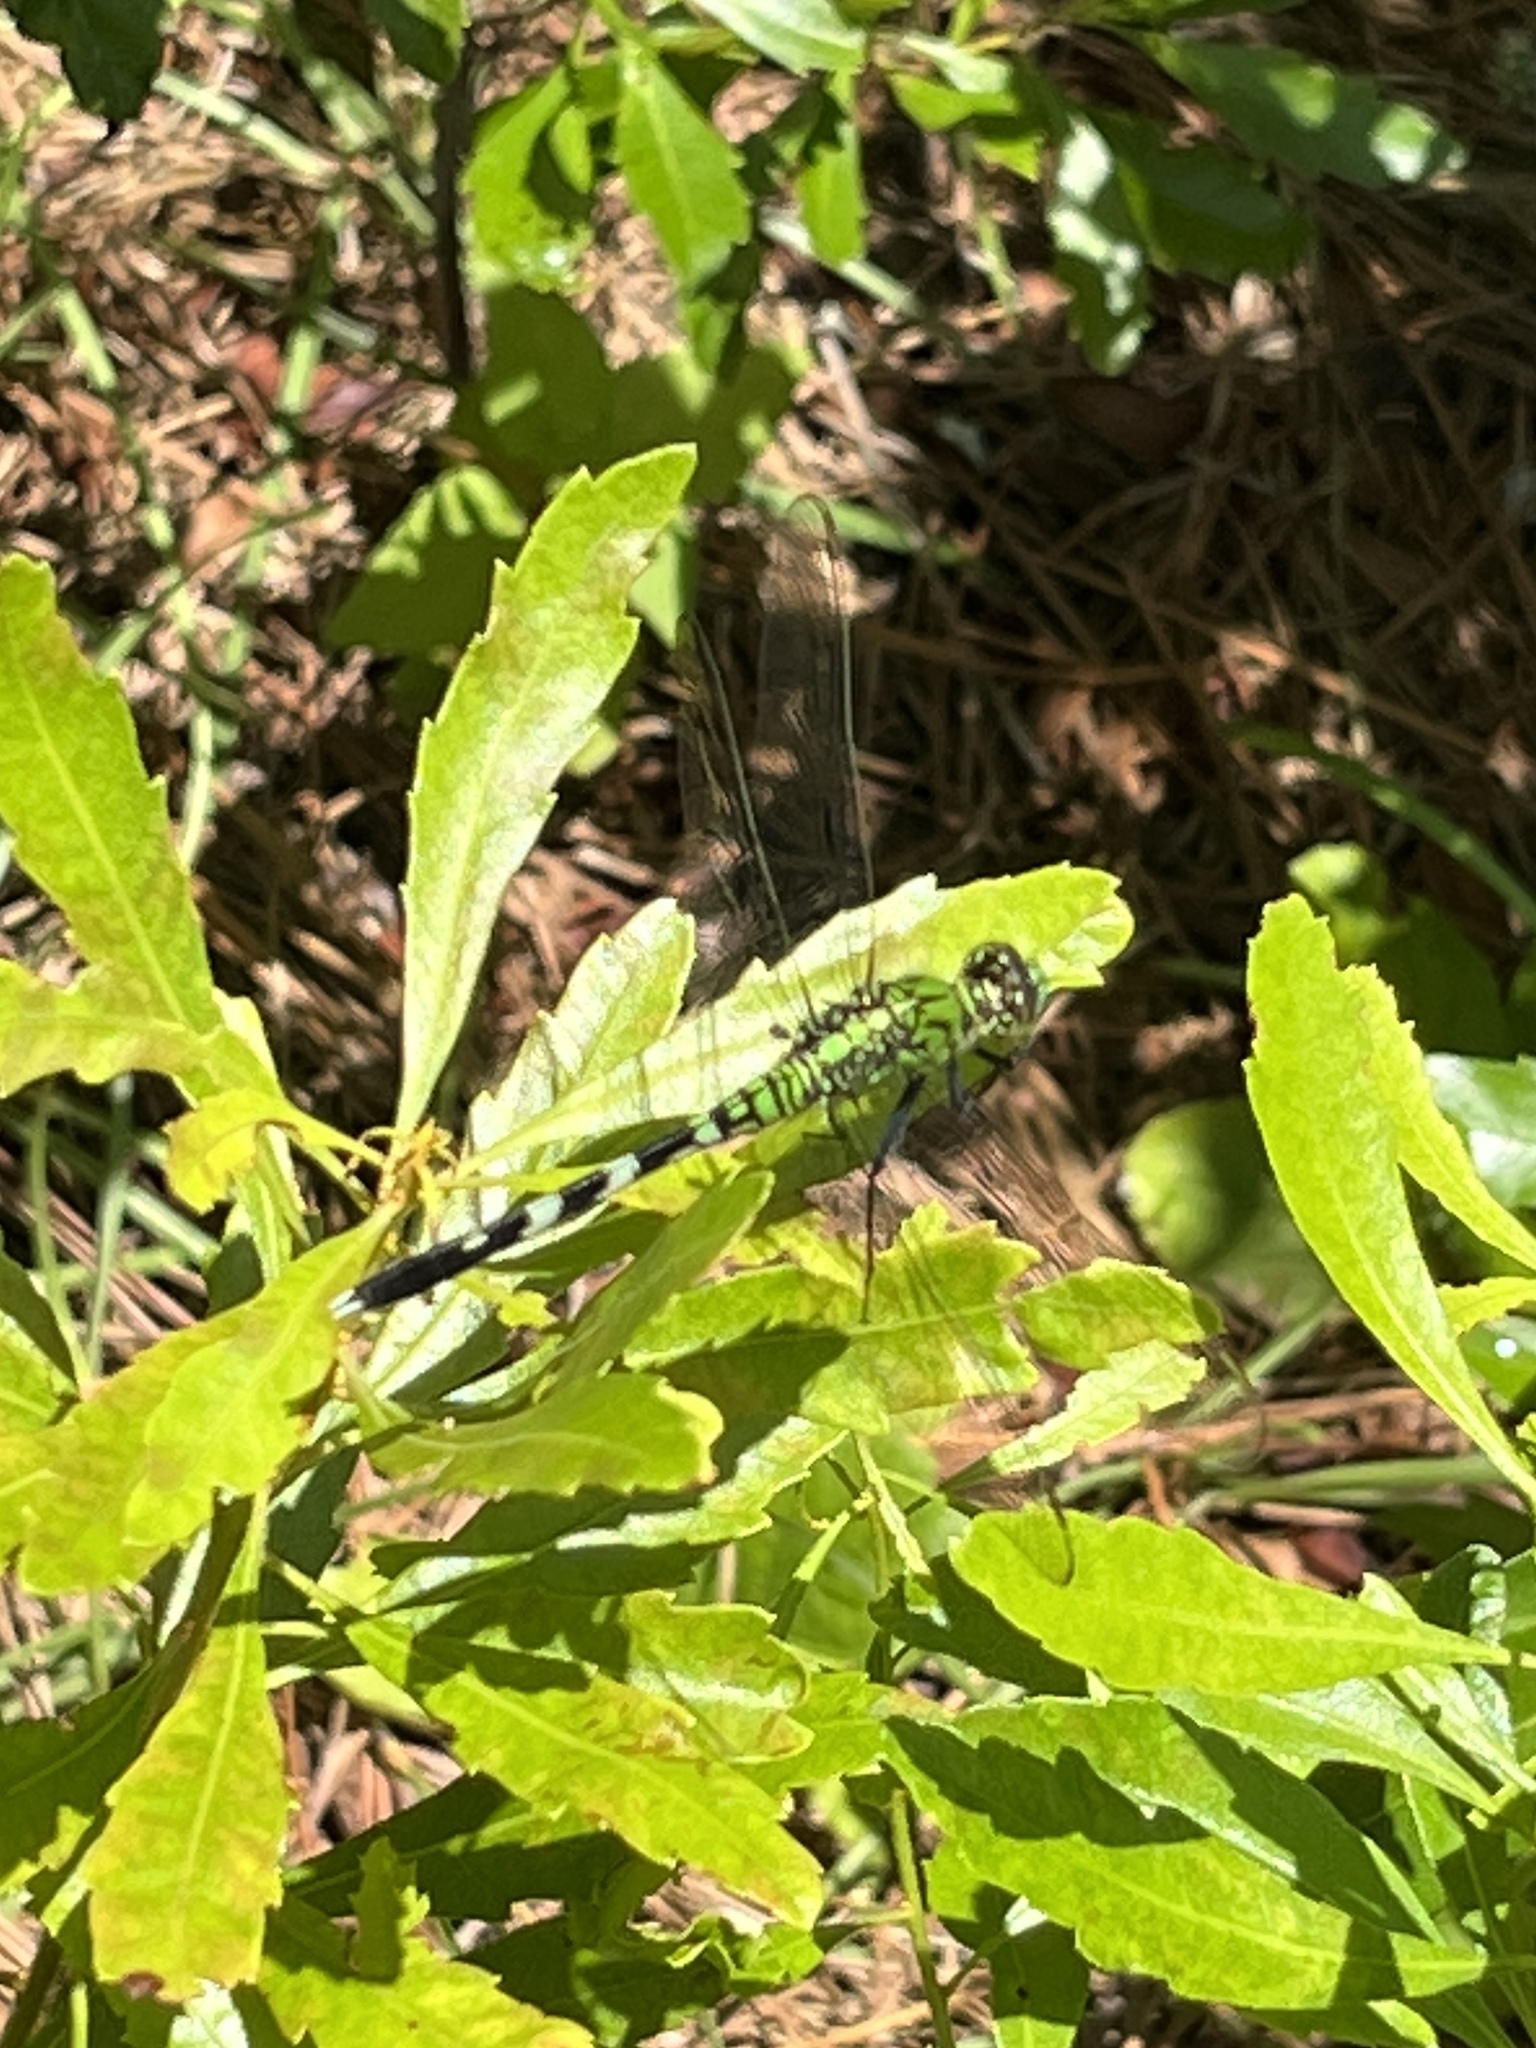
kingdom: Animalia
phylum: Arthropoda
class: Insecta
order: Odonata
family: Libellulidae
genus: Erythemis
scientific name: Erythemis simplicicollis
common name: Eastern pondhawk
